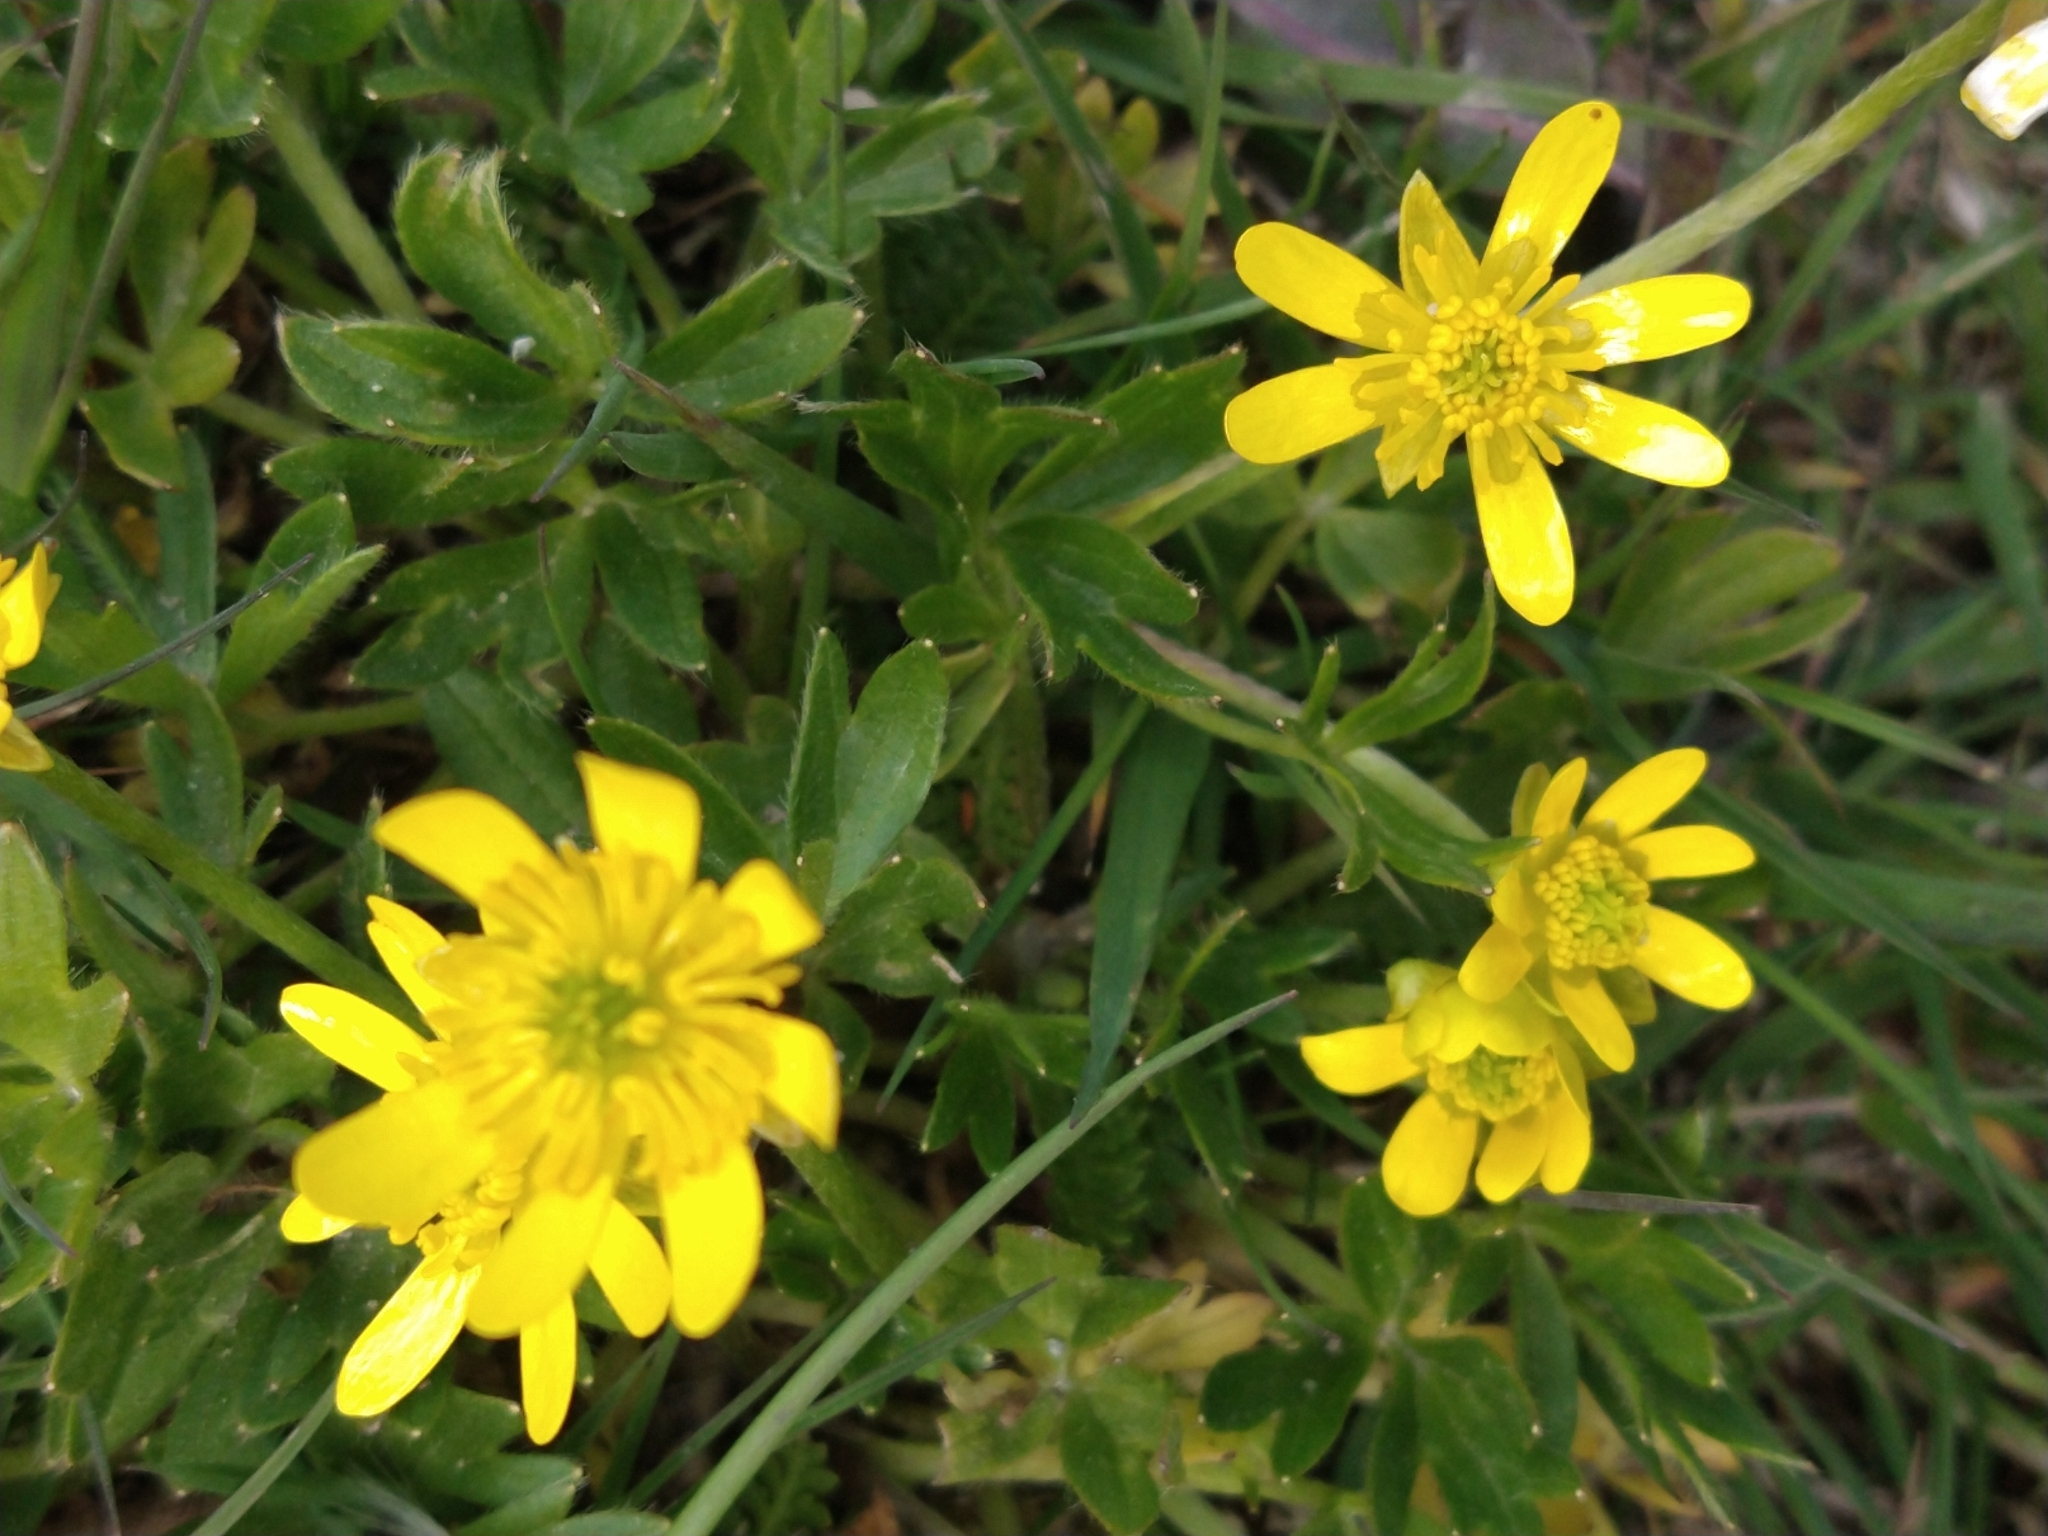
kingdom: Plantae
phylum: Tracheophyta
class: Magnoliopsida
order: Ranunculales
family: Ranunculaceae
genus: Ranunculus
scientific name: Ranunculus peduncularis
